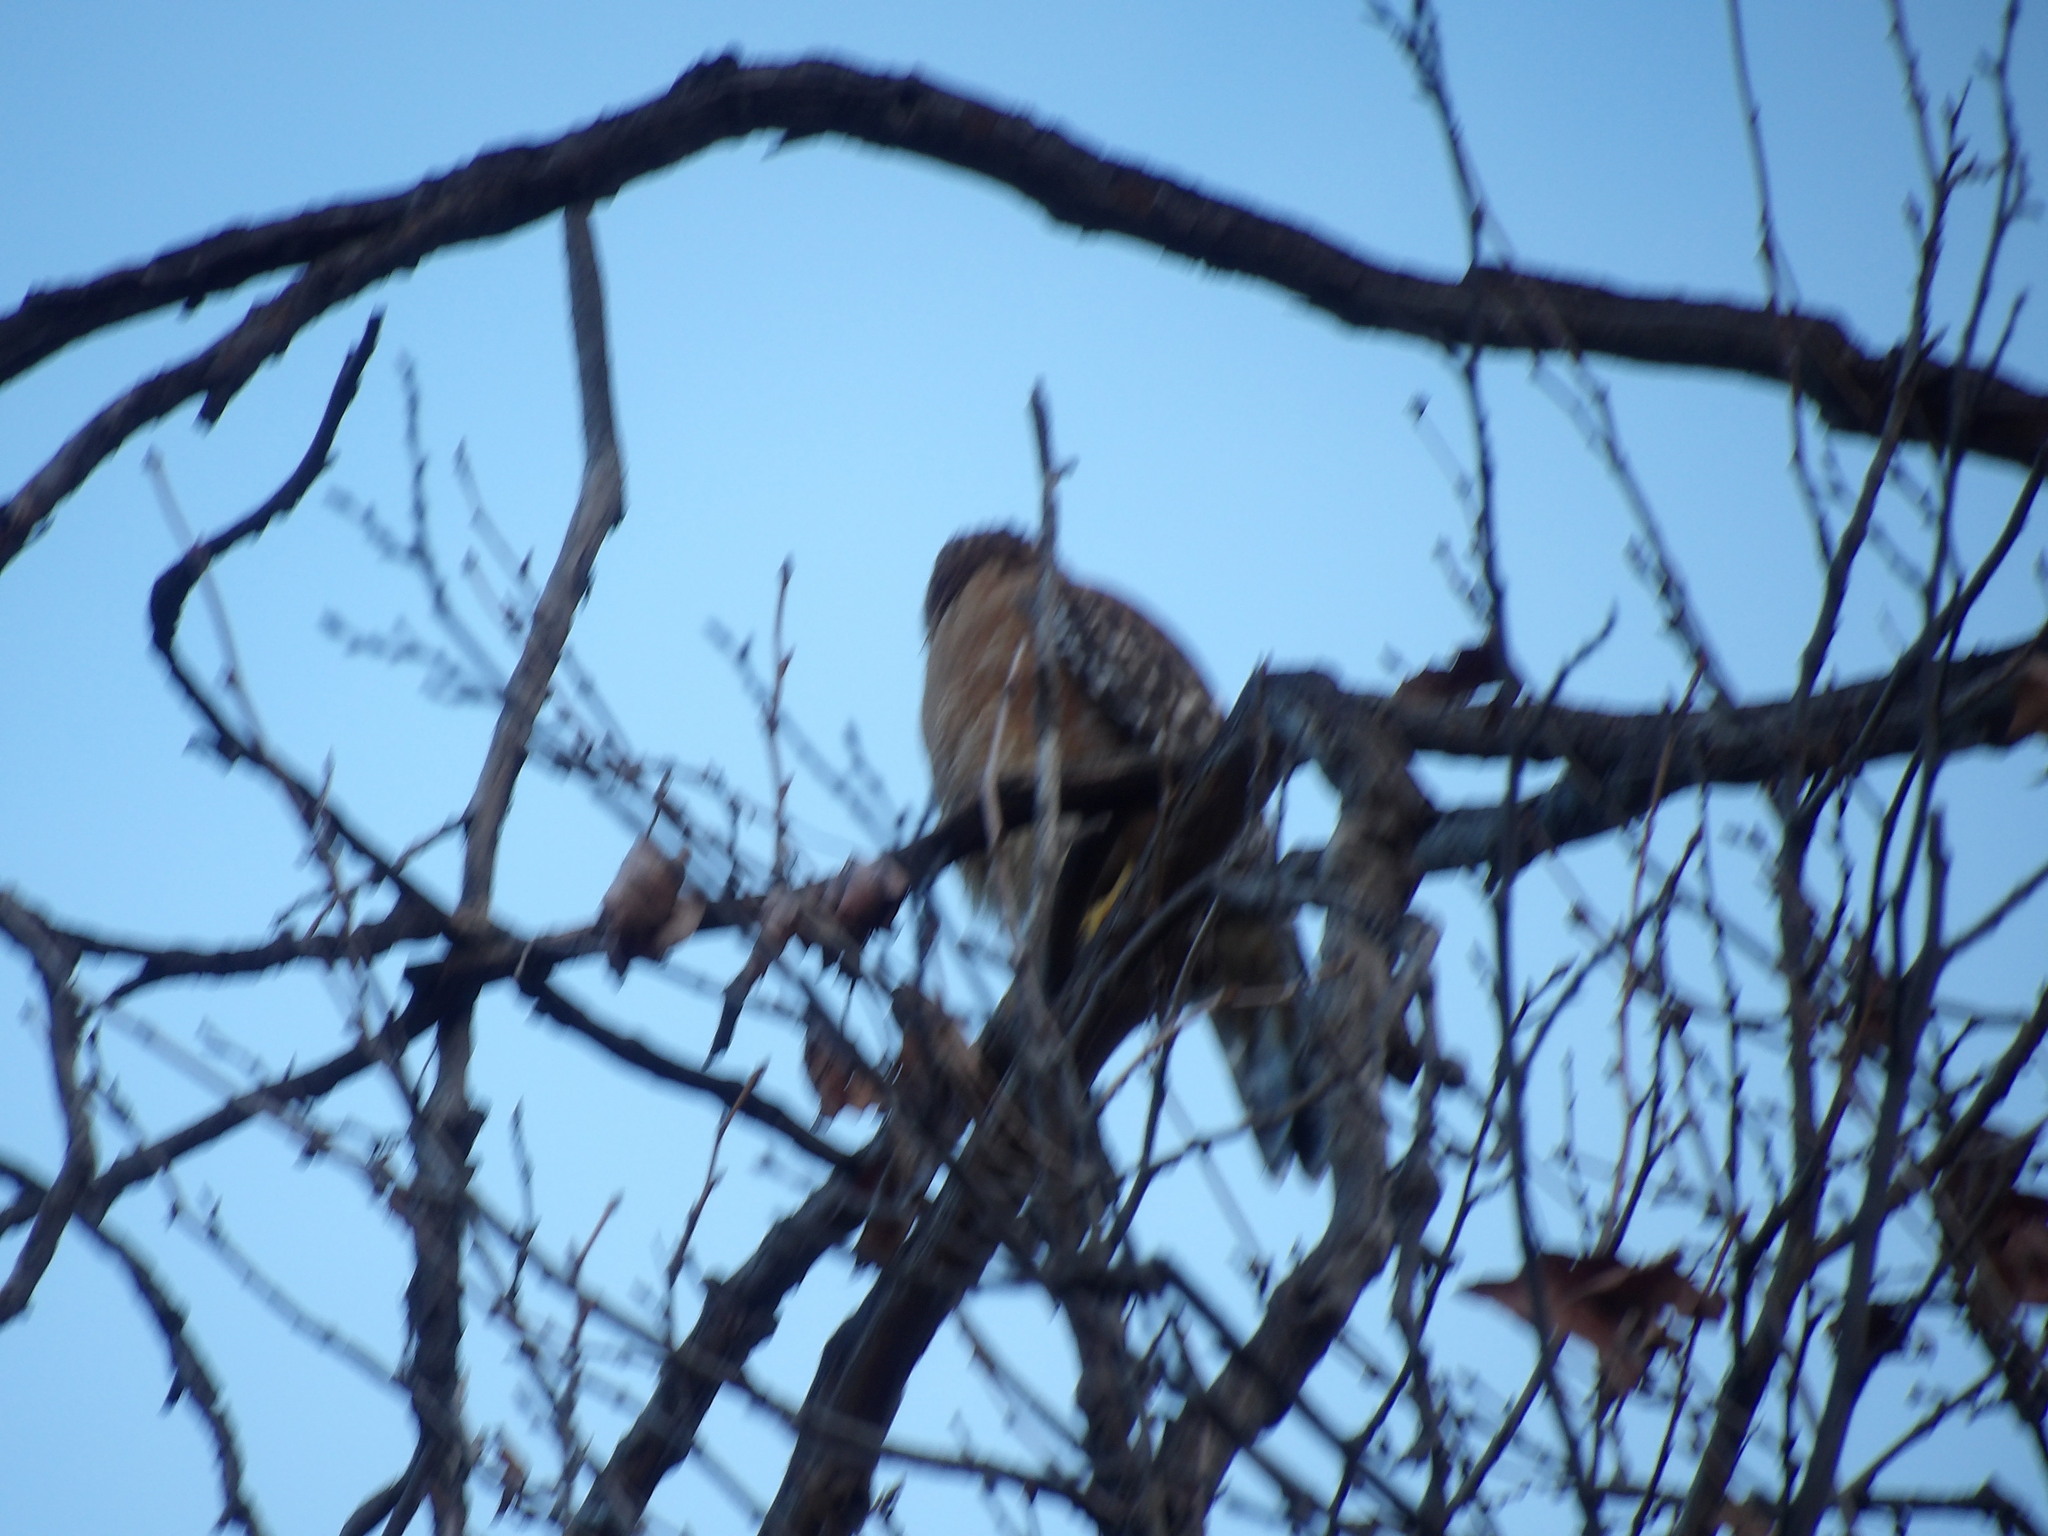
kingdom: Animalia
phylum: Chordata
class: Aves
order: Accipitriformes
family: Accipitridae
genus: Buteo
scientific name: Buteo lineatus
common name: Red-shouldered hawk
